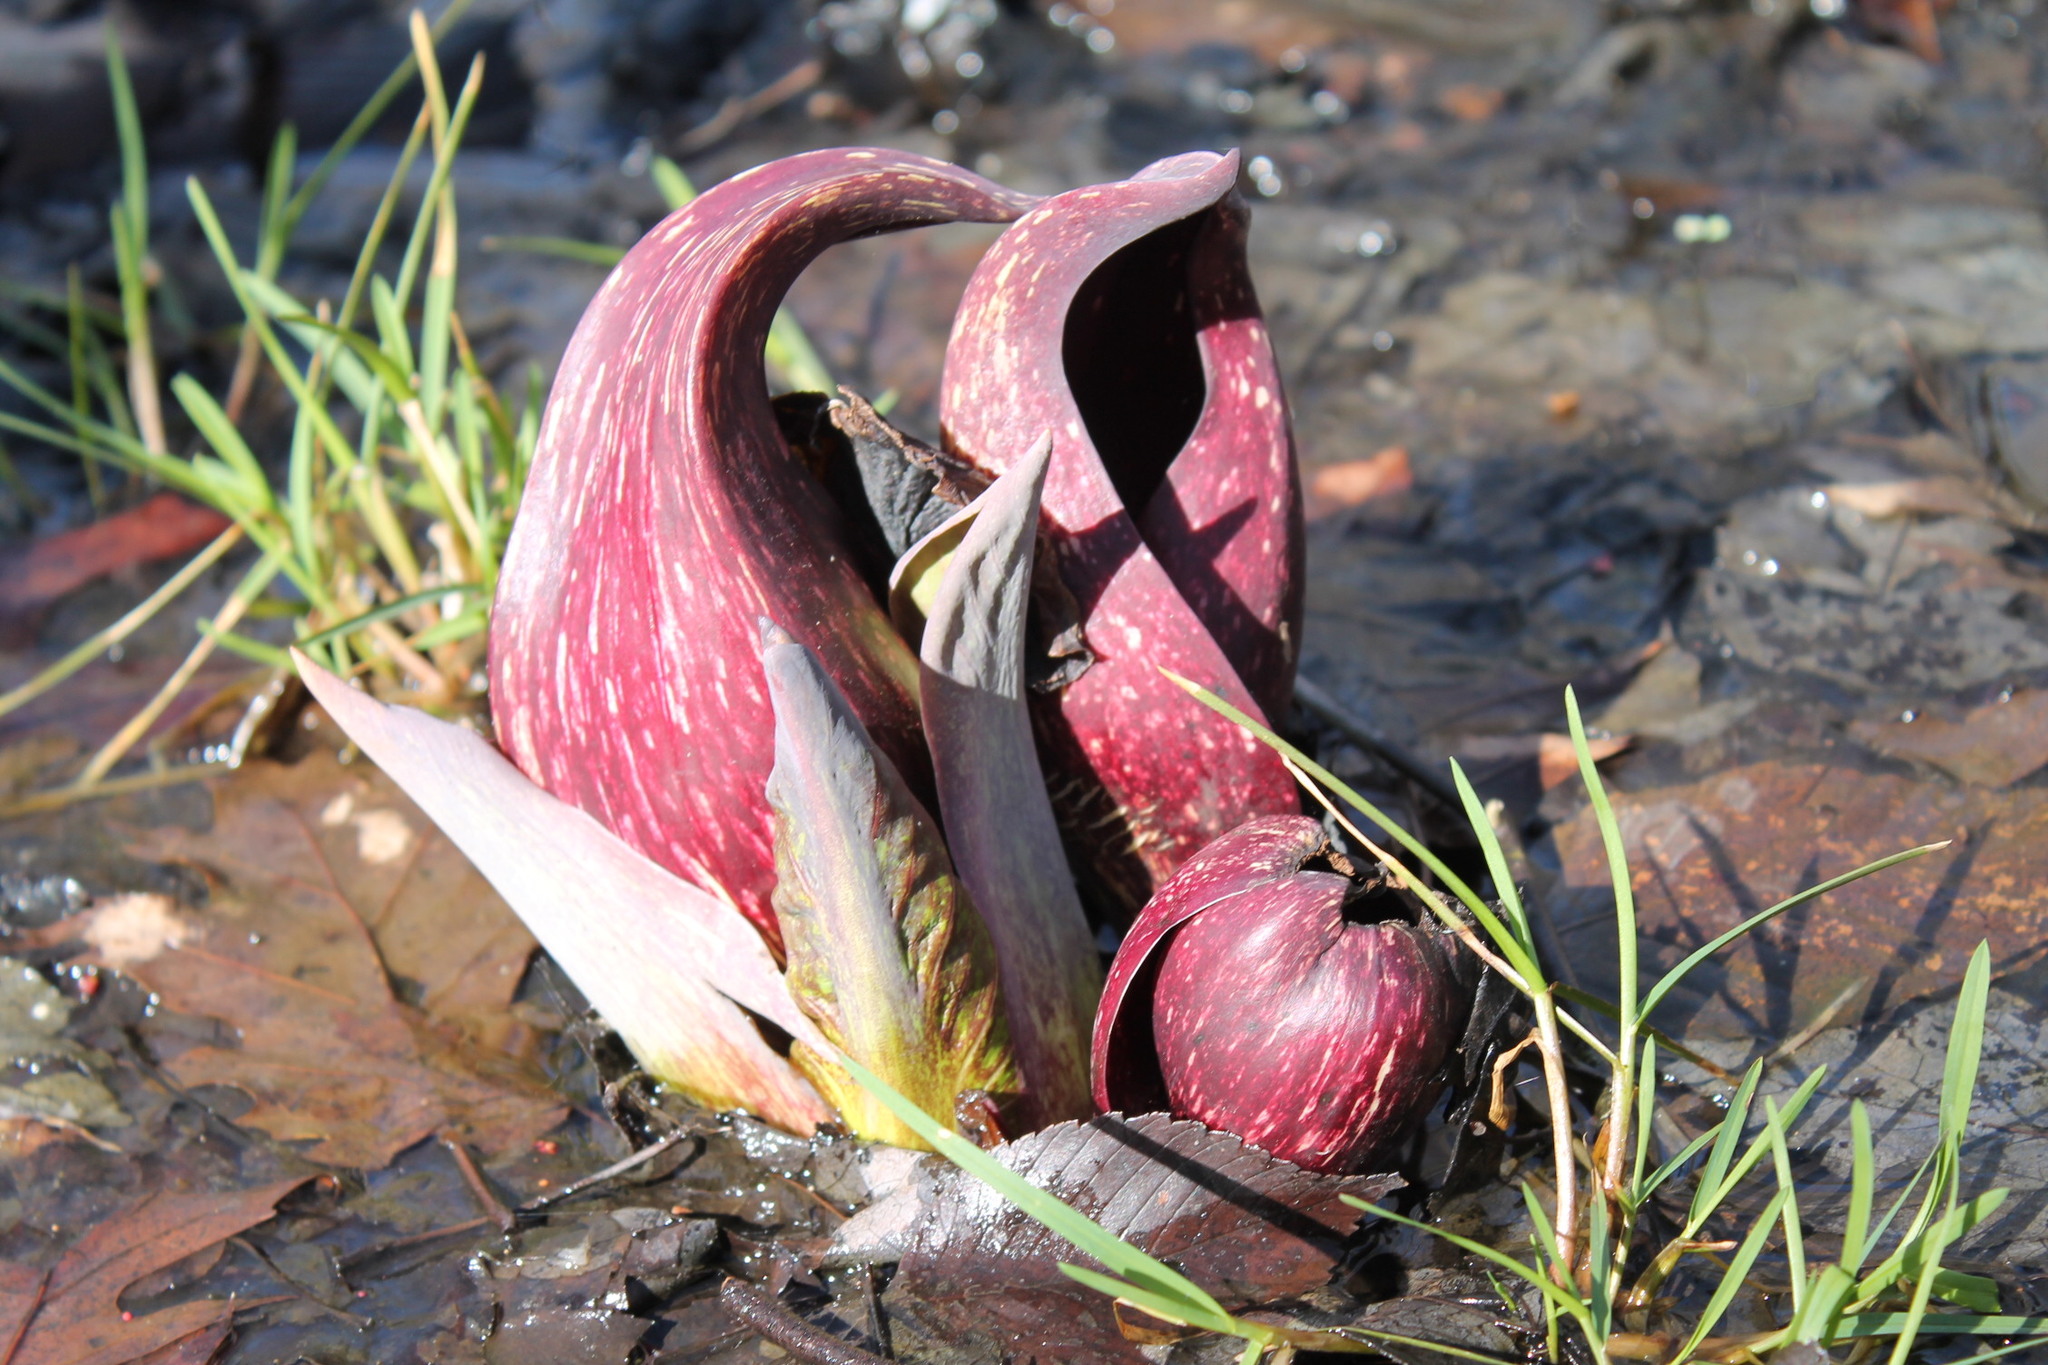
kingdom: Plantae
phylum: Tracheophyta
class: Liliopsida
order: Alismatales
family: Araceae
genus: Symplocarpus
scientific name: Symplocarpus foetidus
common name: Eastern skunk cabbage
